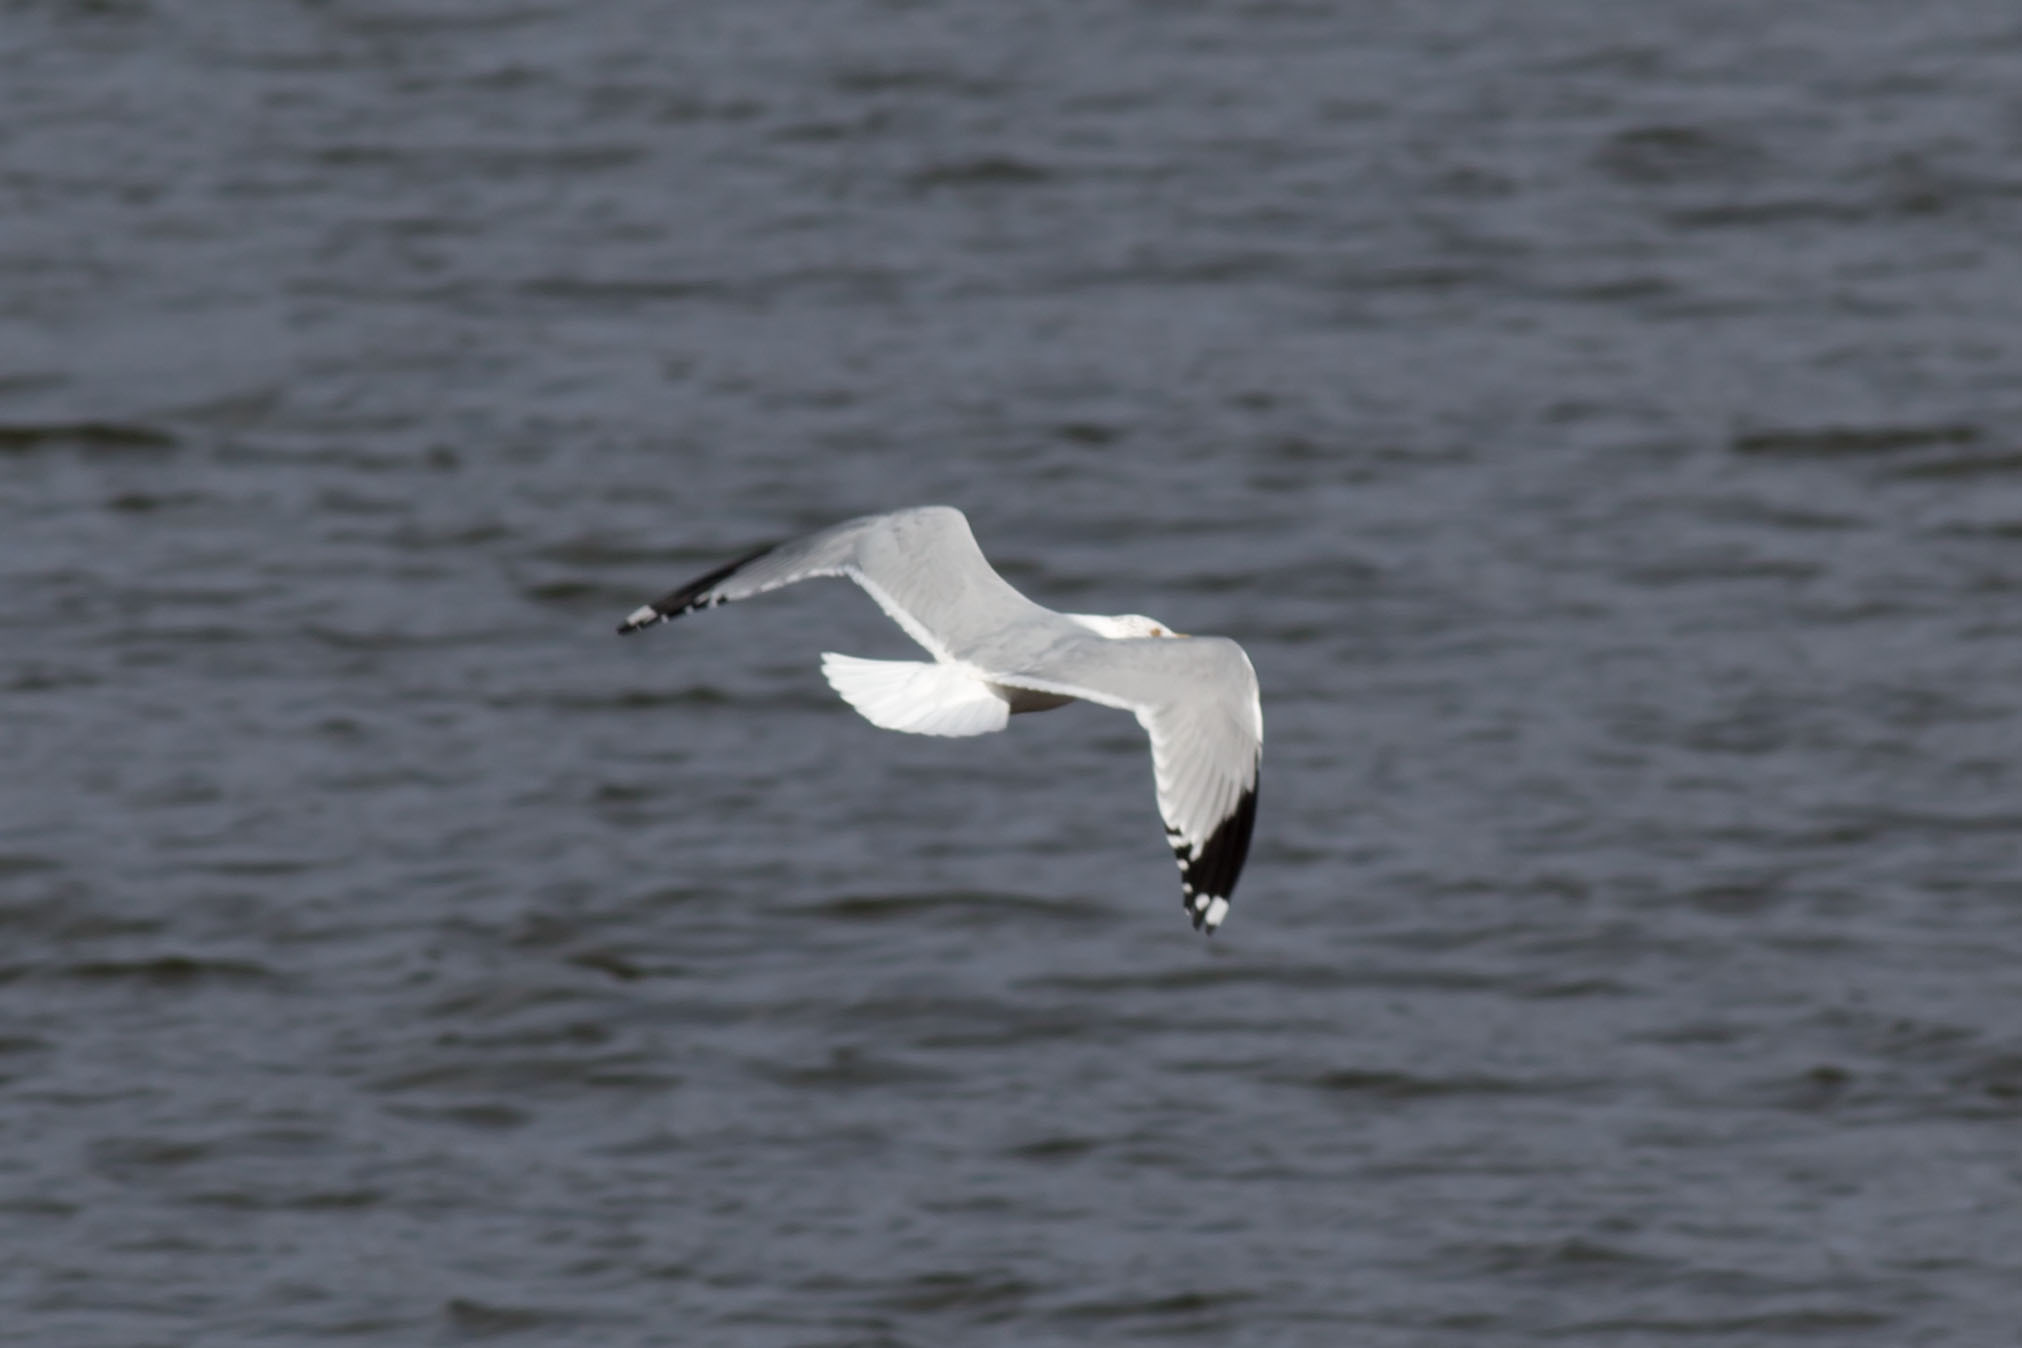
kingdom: Animalia
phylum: Chordata
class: Aves
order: Charadriiformes
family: Laridae
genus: Larus
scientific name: Larus delawarensis
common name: Ring-billed gull
